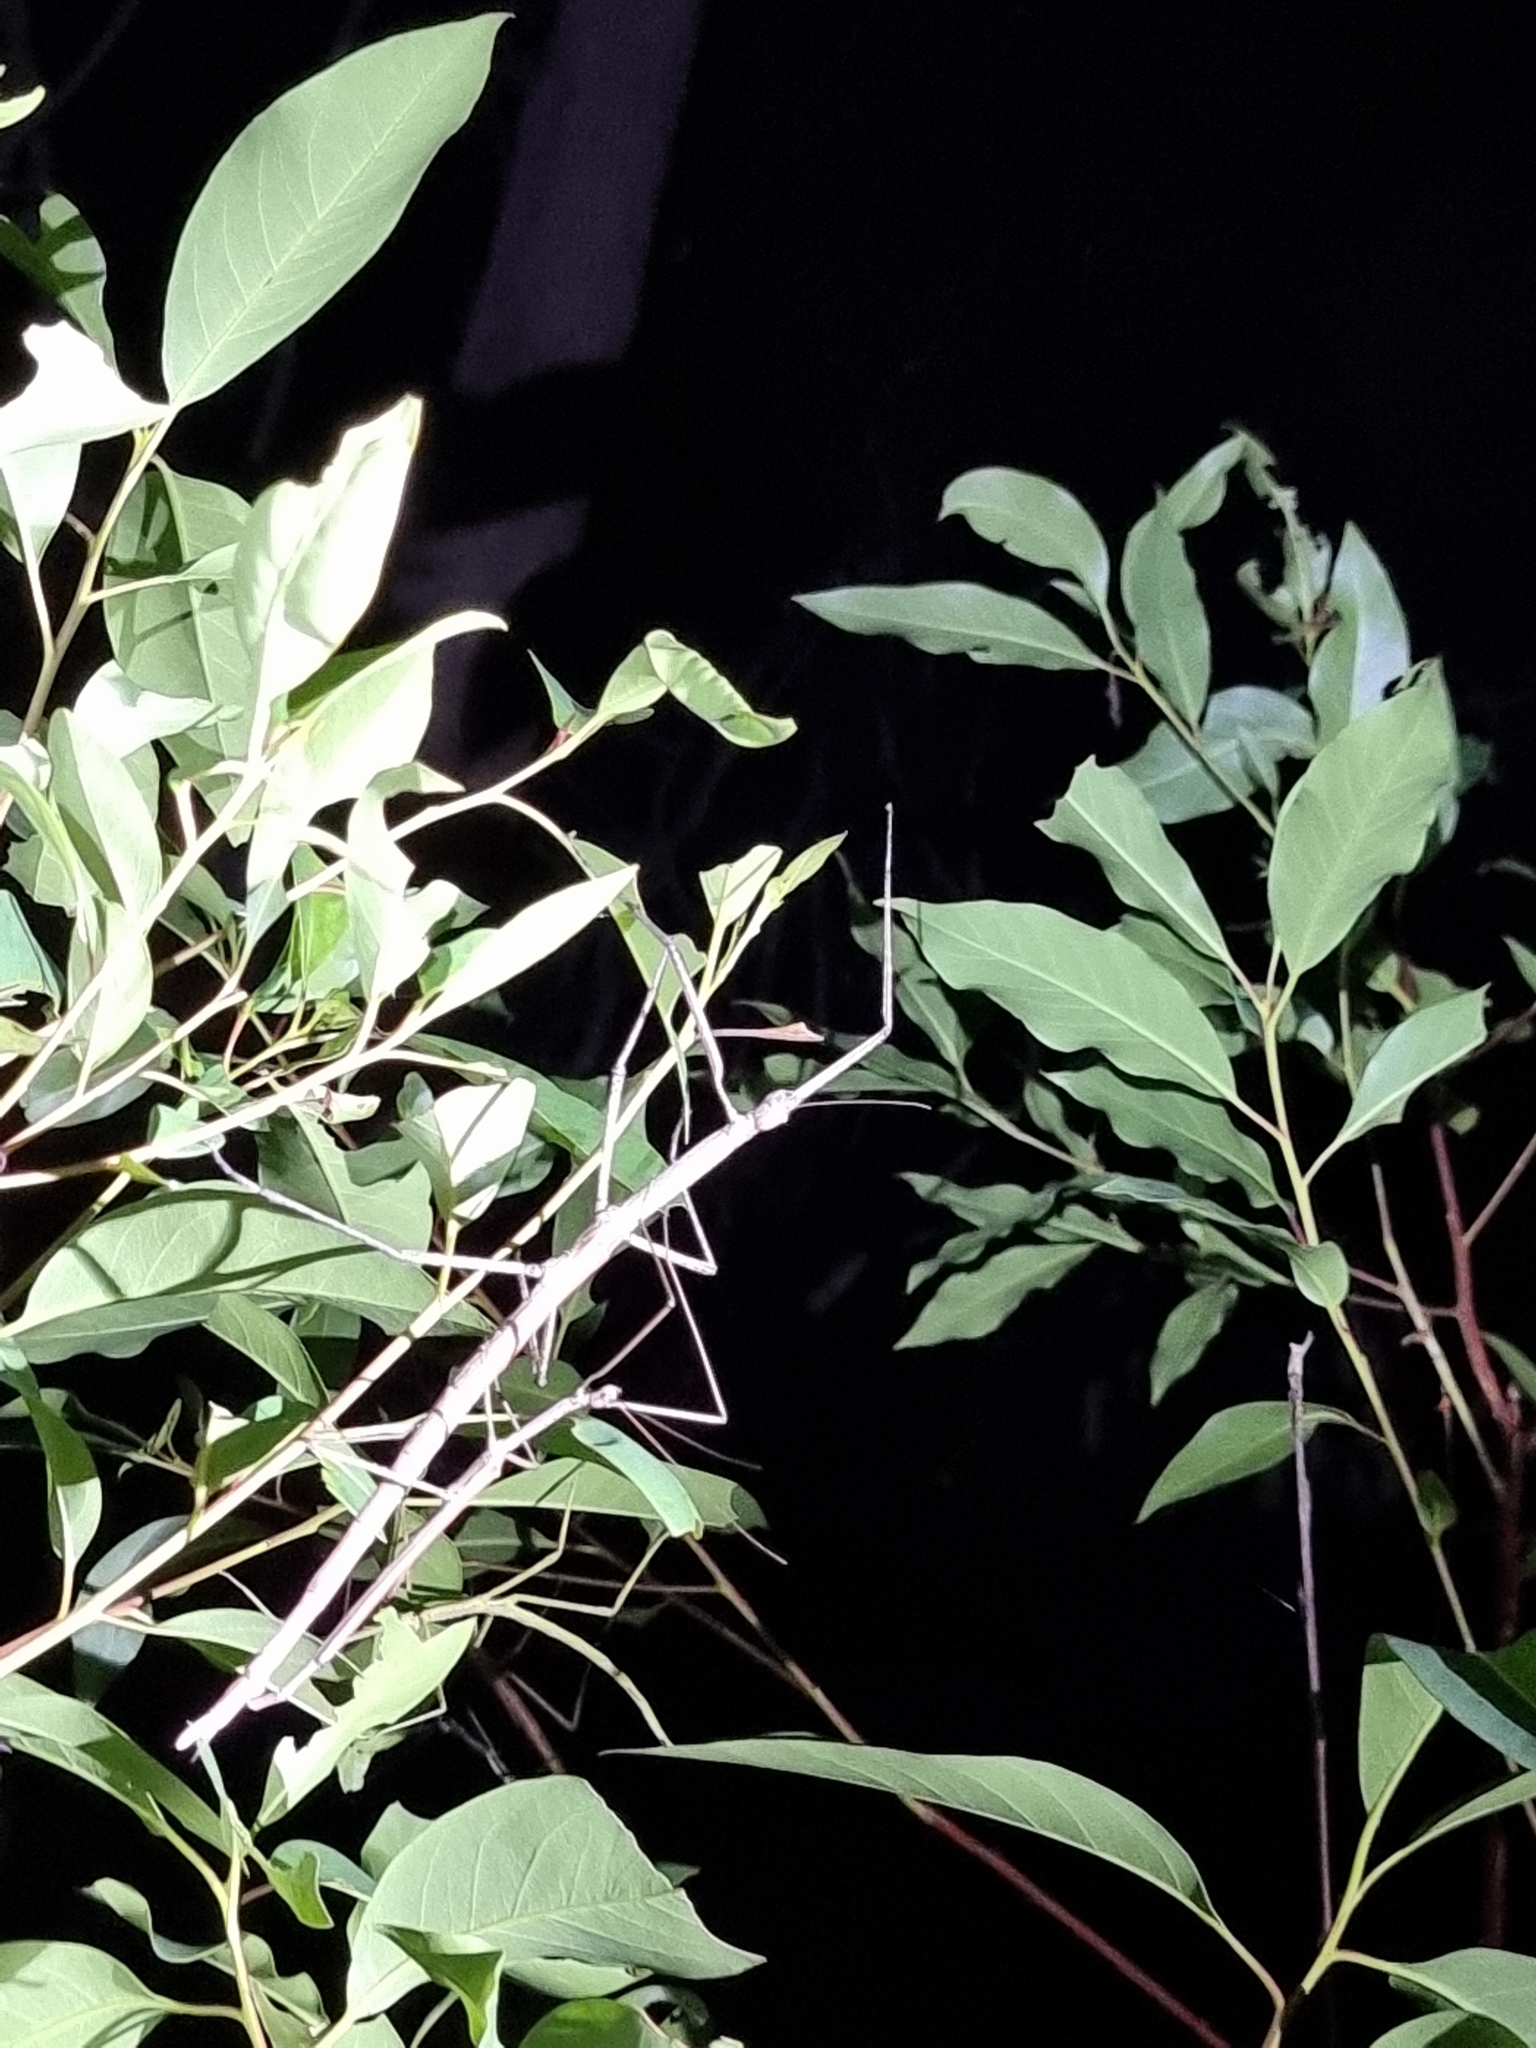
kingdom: Animalia
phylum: Arthropoda
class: Insecta
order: Phasmida
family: Phasmatidae
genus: Anchiale
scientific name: Anchiale austrotessulata
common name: Tessellated stick-insect
